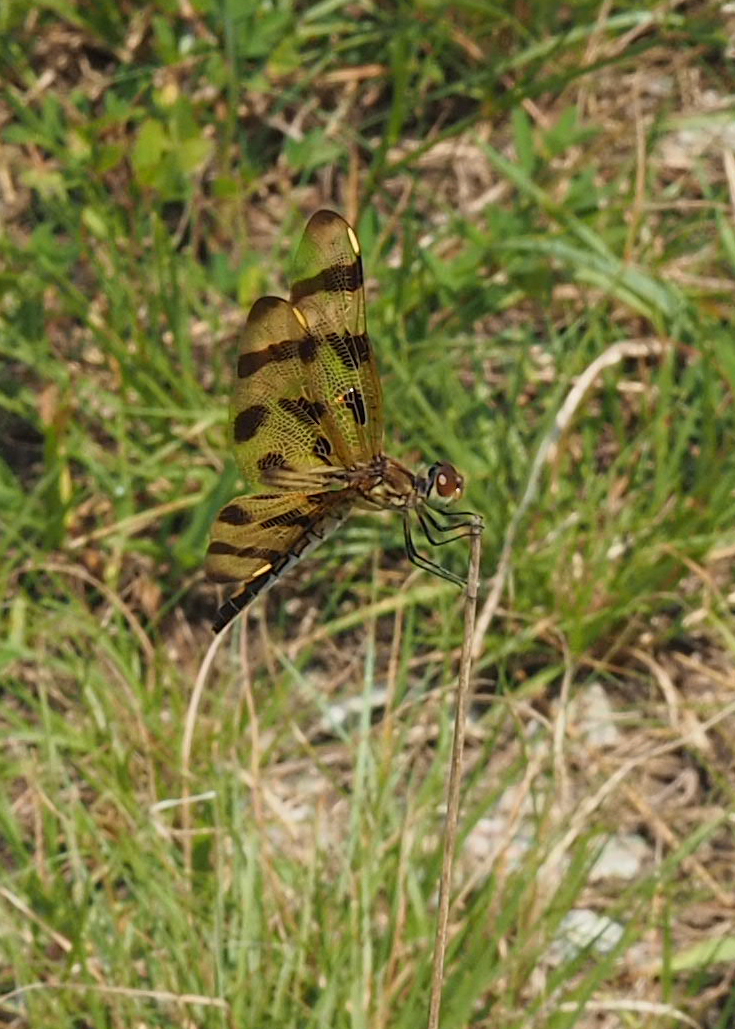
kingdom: Animalia
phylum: Arthropoda
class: Insecta
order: Odonata
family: Libellulidae
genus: Celithemis
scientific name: Celithemis eponina
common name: Halloween pennant
